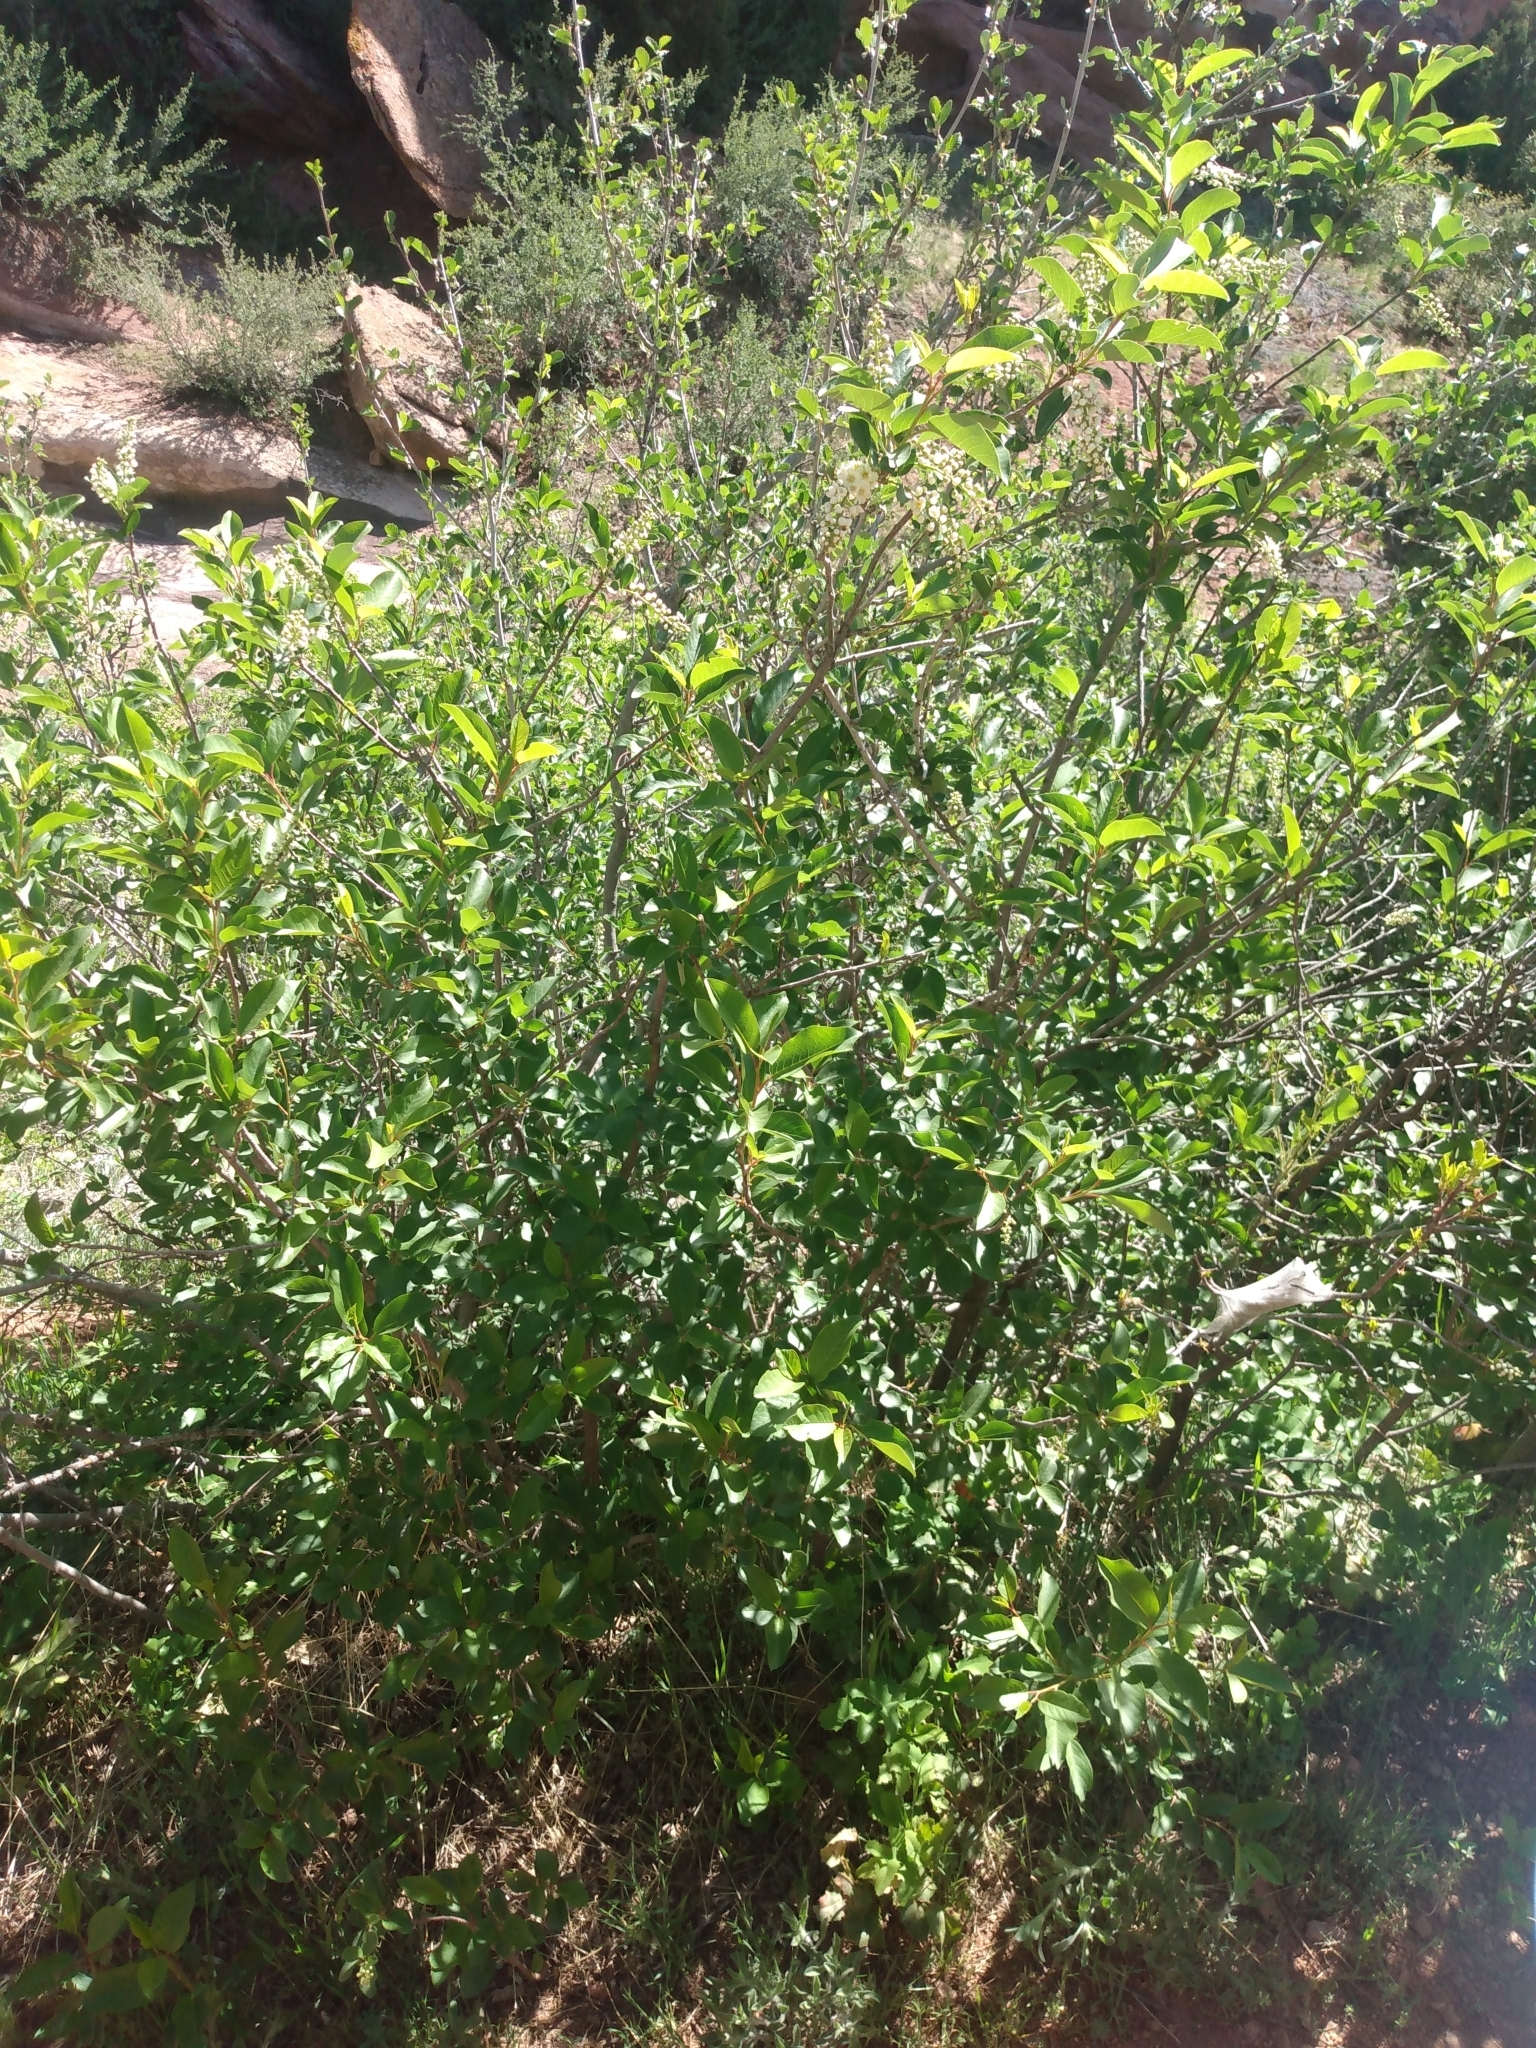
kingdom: Plantae
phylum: Tracheophyta
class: Magnoliopsida
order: Rosales
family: Rosaceae
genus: Prunus
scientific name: Prunus virginiana
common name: Chokecherry
